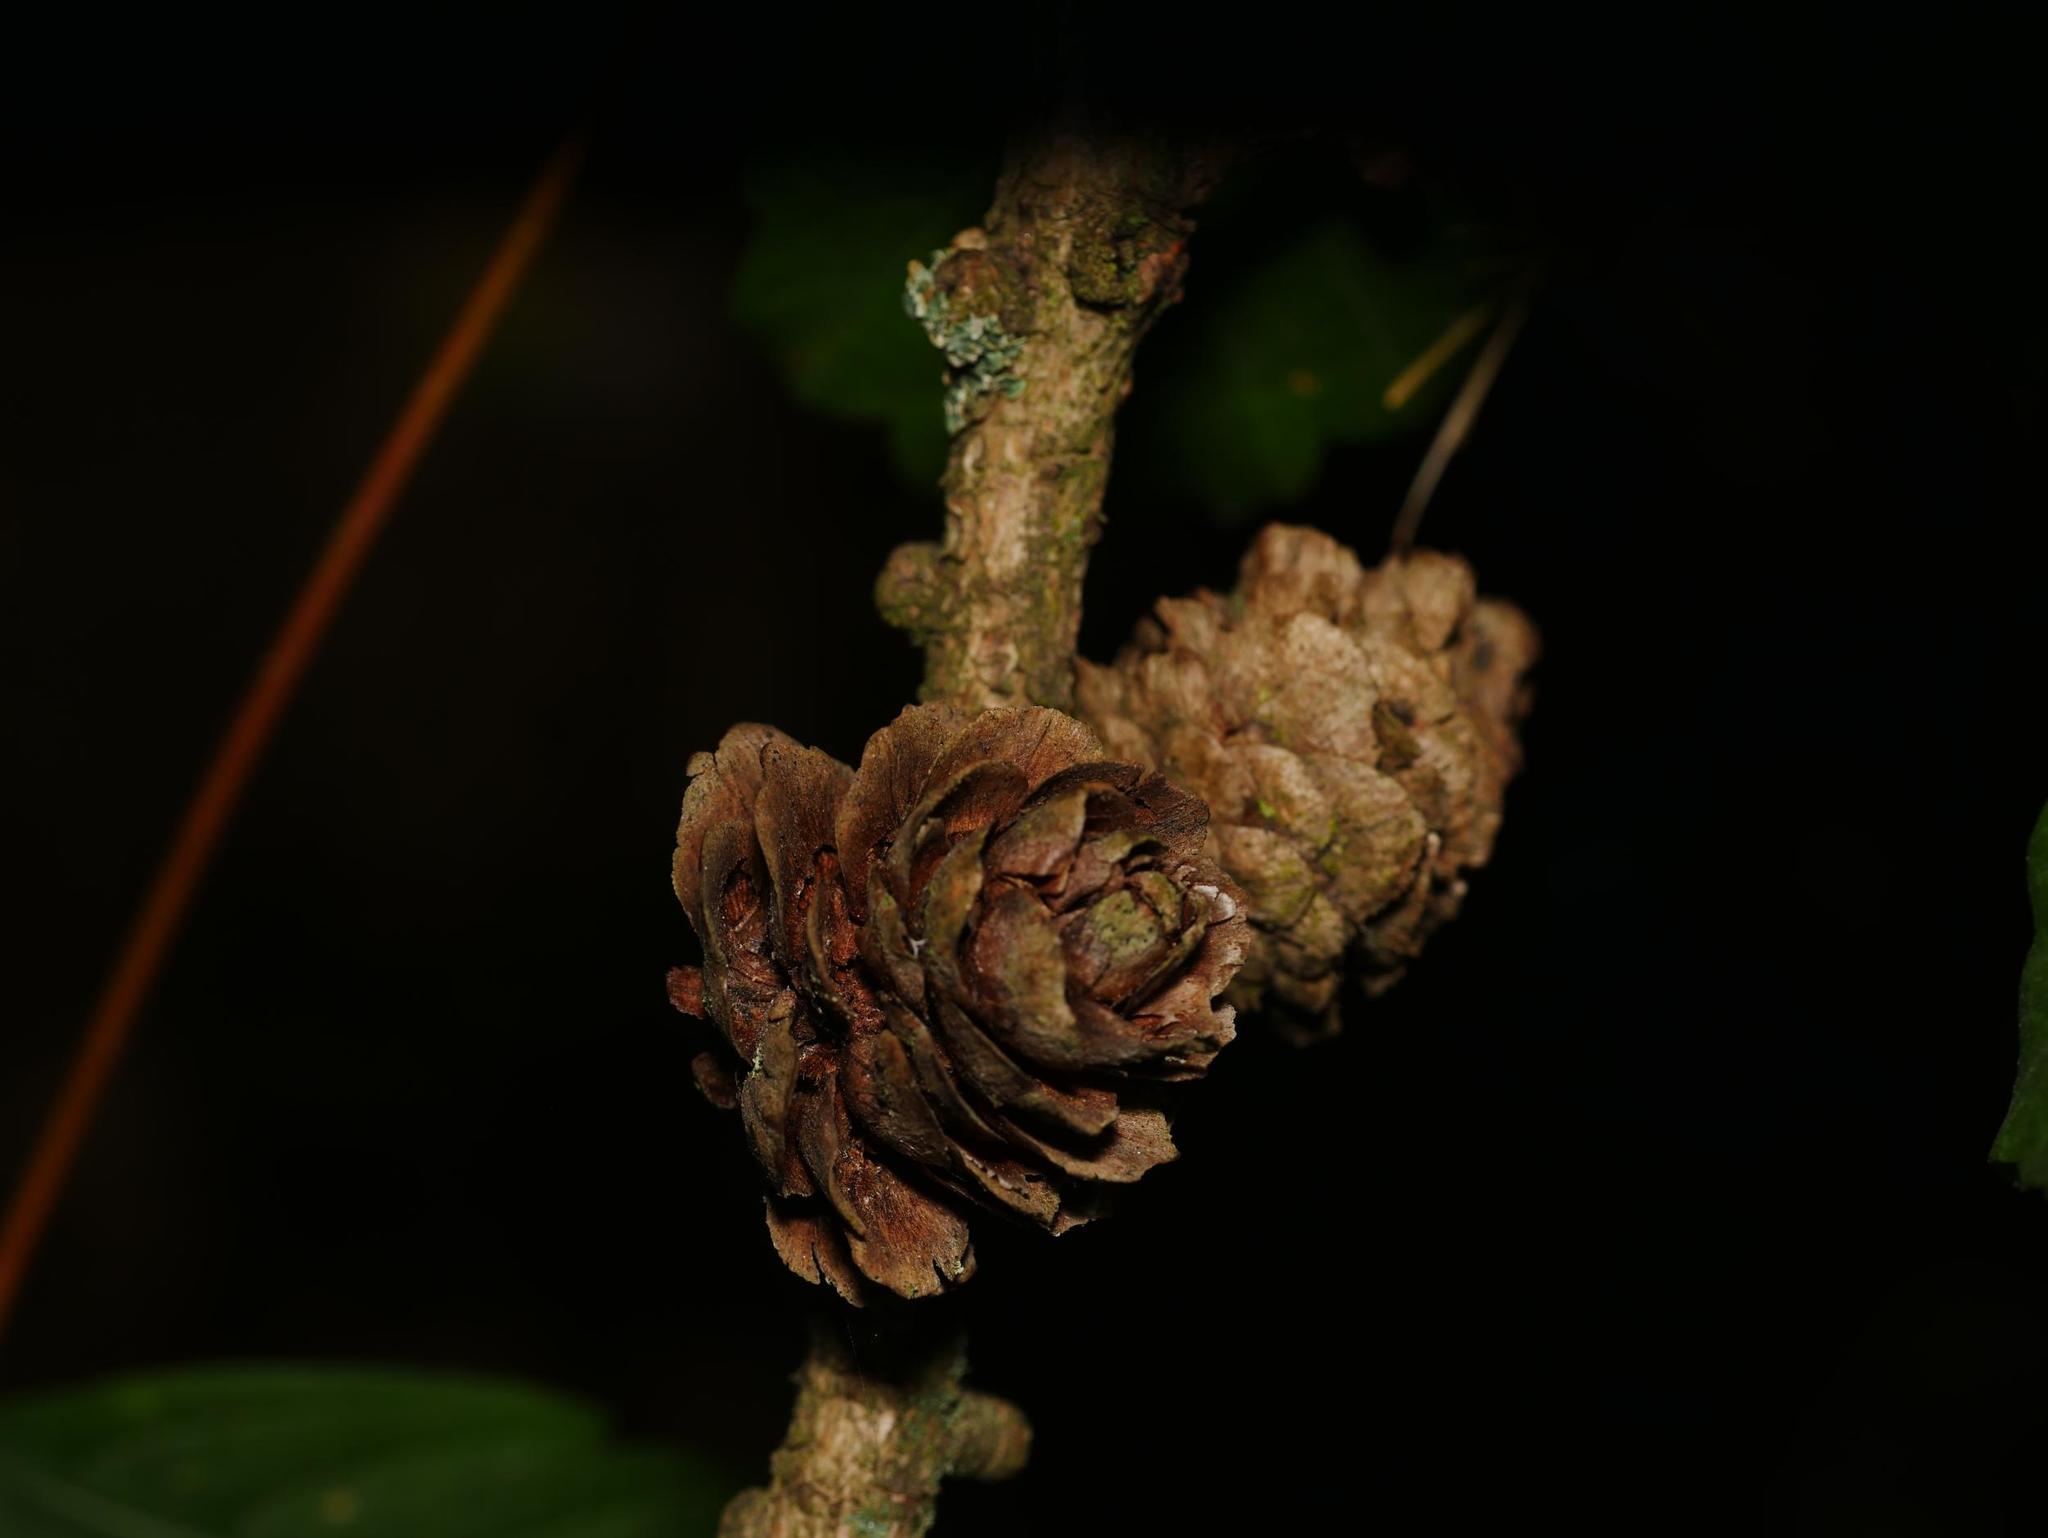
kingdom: Plantae
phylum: Tracheophyta
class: Pinopsida
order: Pinales
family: Pinaceae
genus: Larix
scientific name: Larix decidua
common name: European larch
